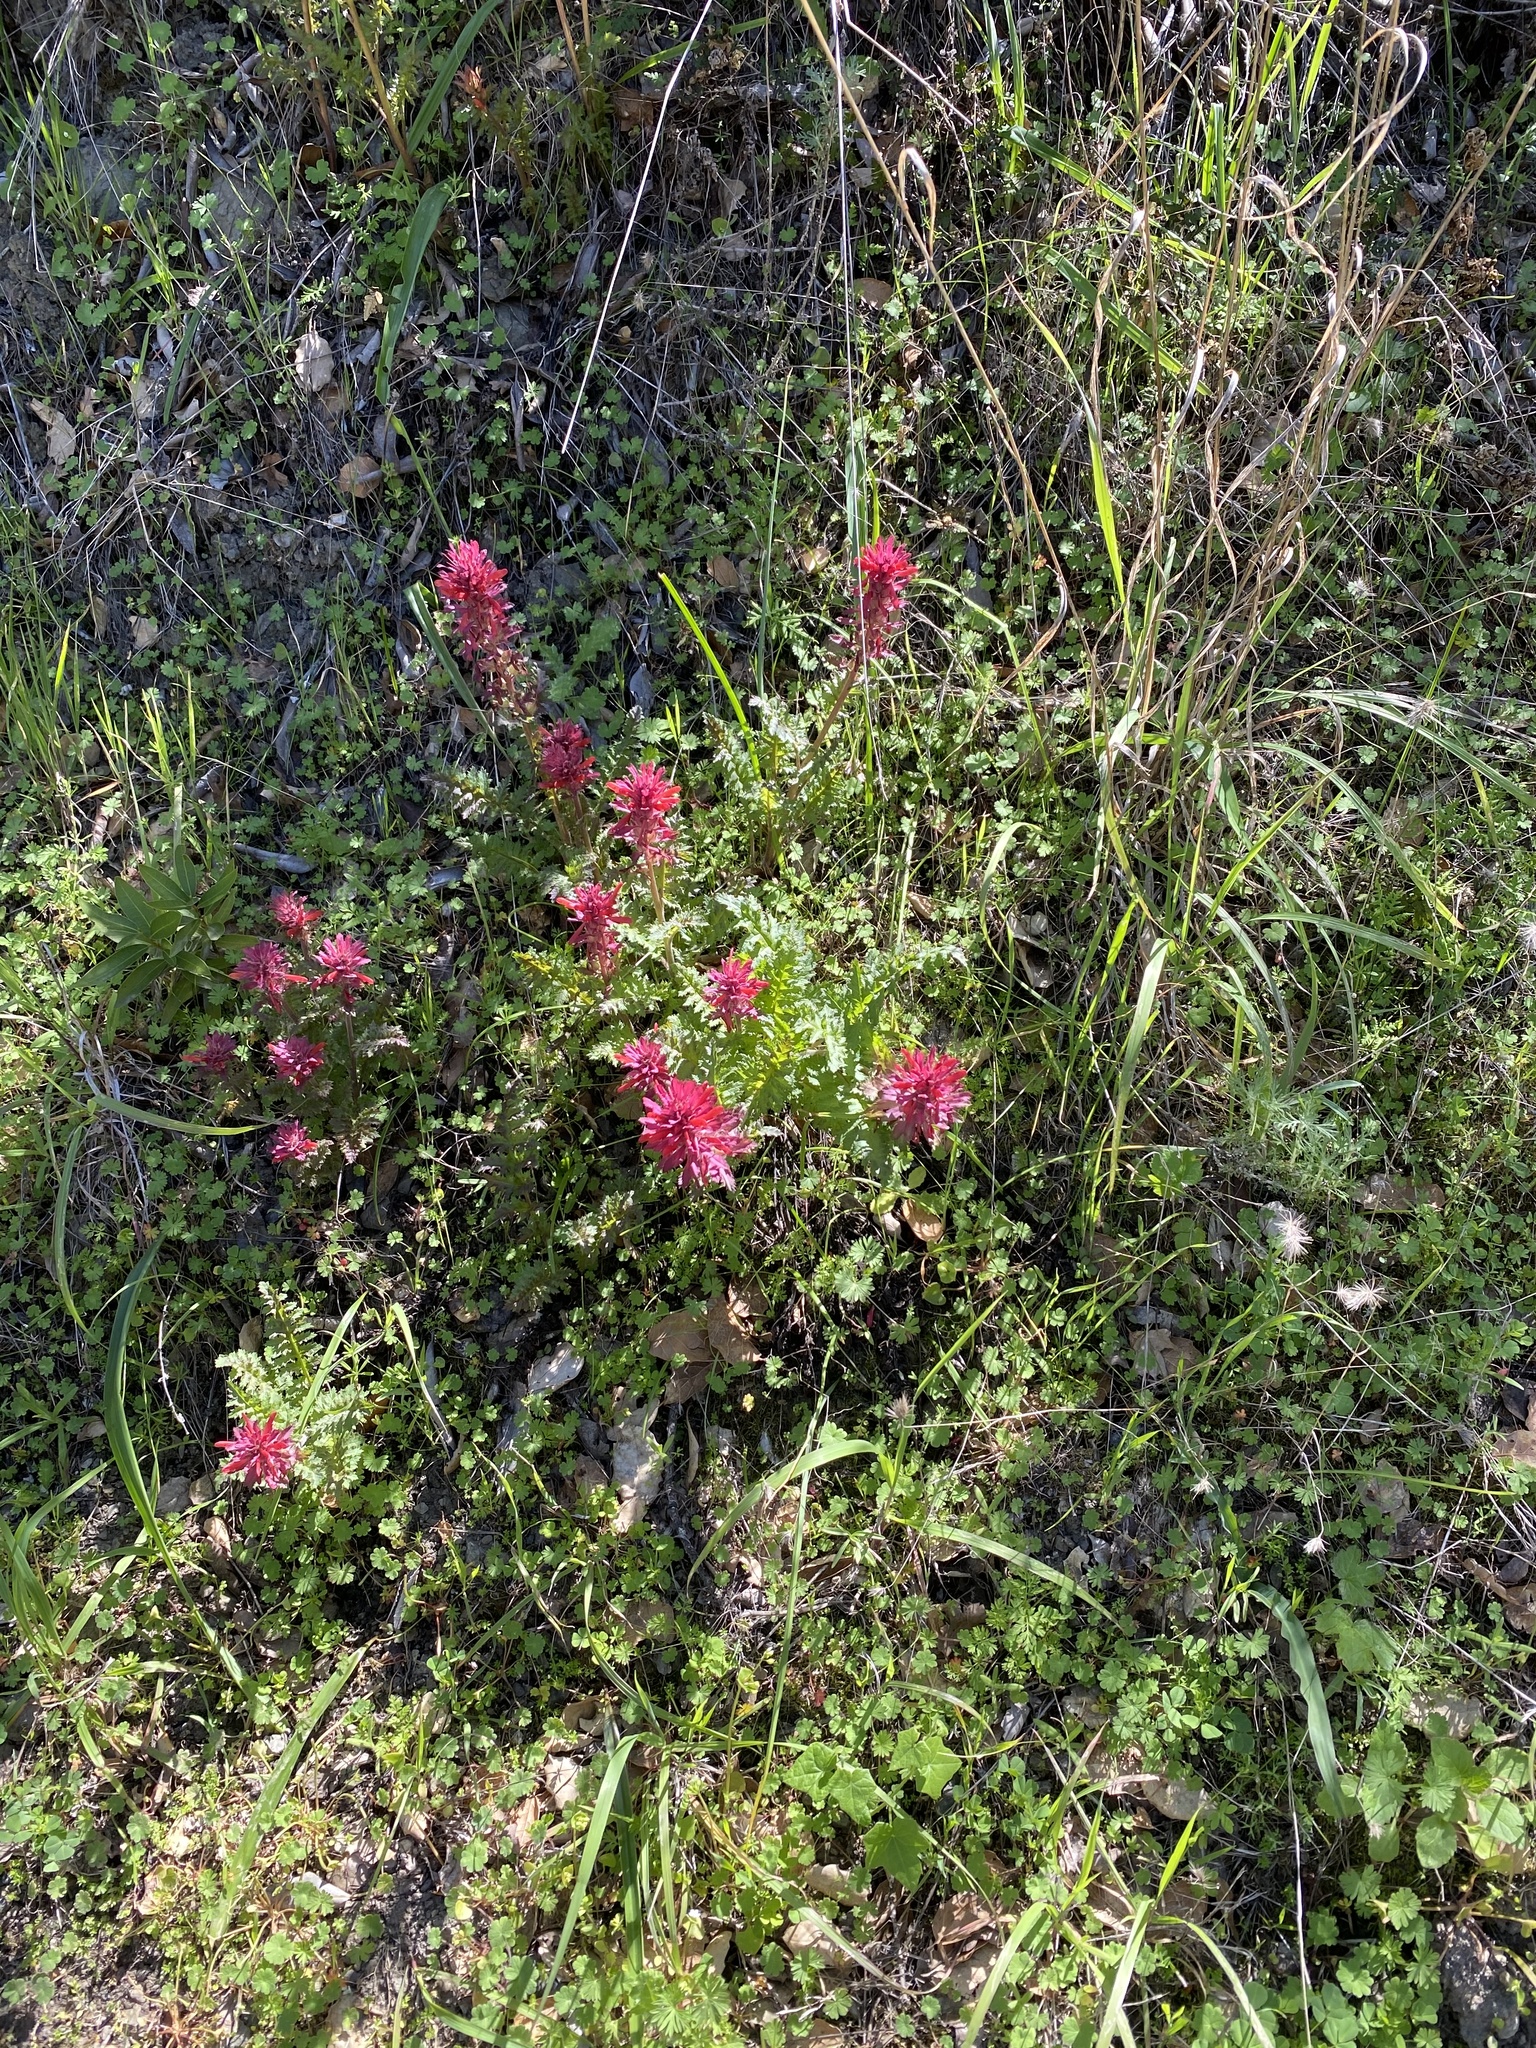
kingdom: Plantae
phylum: Tracheophyta
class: Magnoliopsida
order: Lamiales
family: Orobanchaceae
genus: Pedicularis
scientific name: Pedicularis densiflora
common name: Indian warrior
